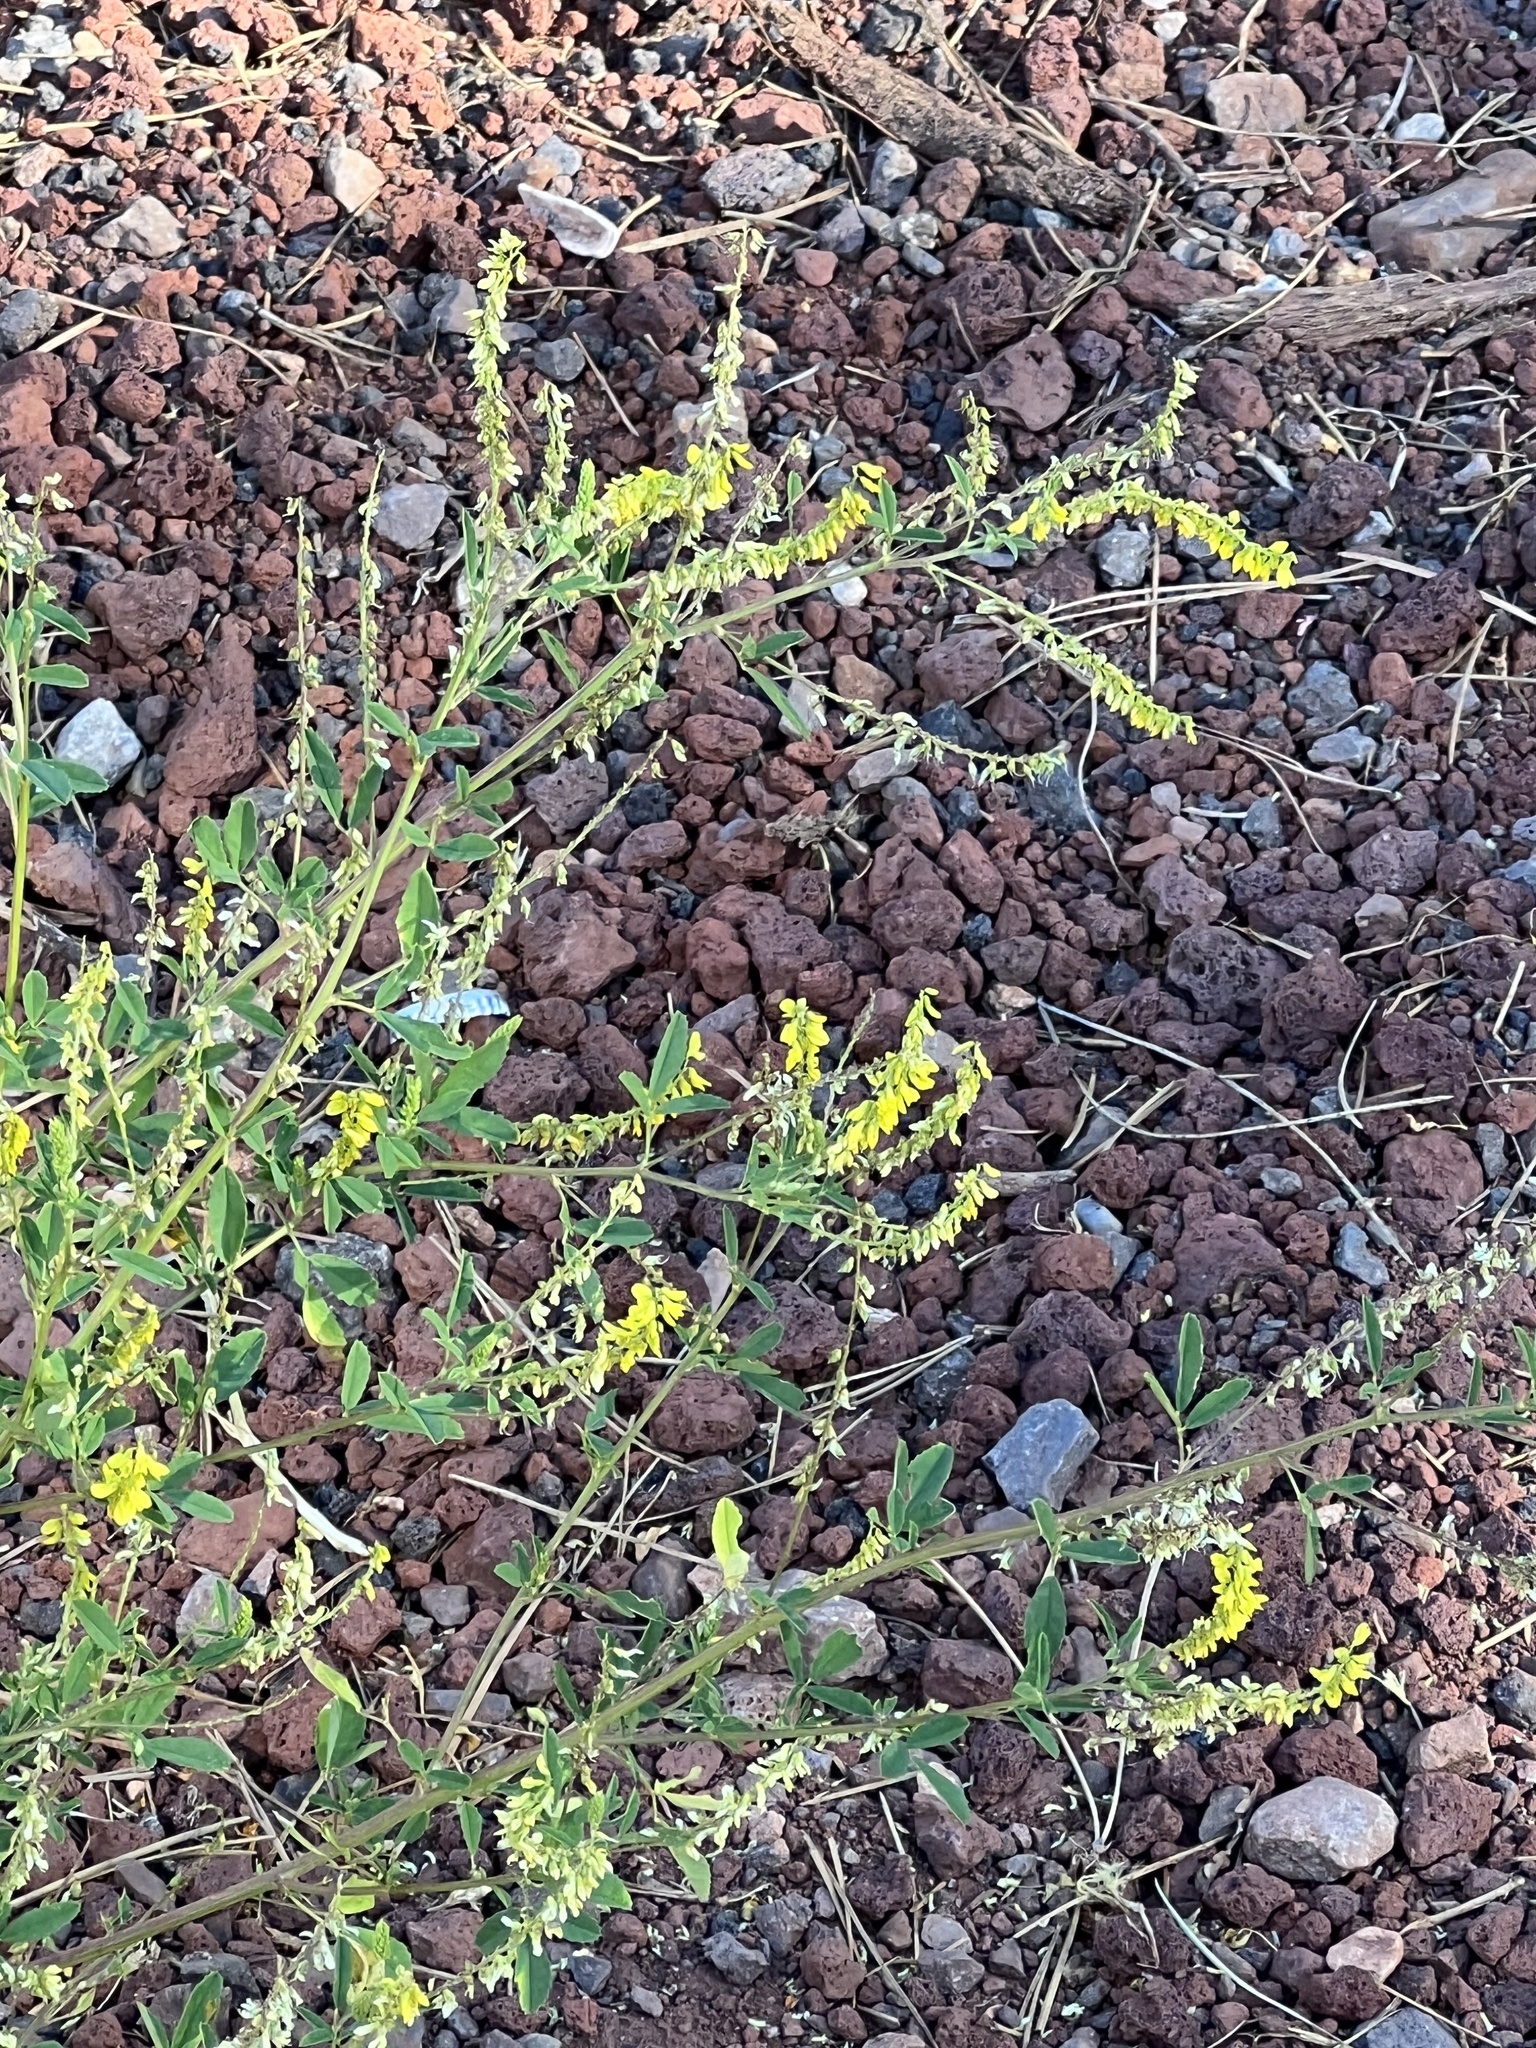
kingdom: Plantae
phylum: Tracheophyta
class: Magnoliopsida
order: Fabales
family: Fabaceae
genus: Melilotus
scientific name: Melilotus officinalis
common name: Sweetclover
